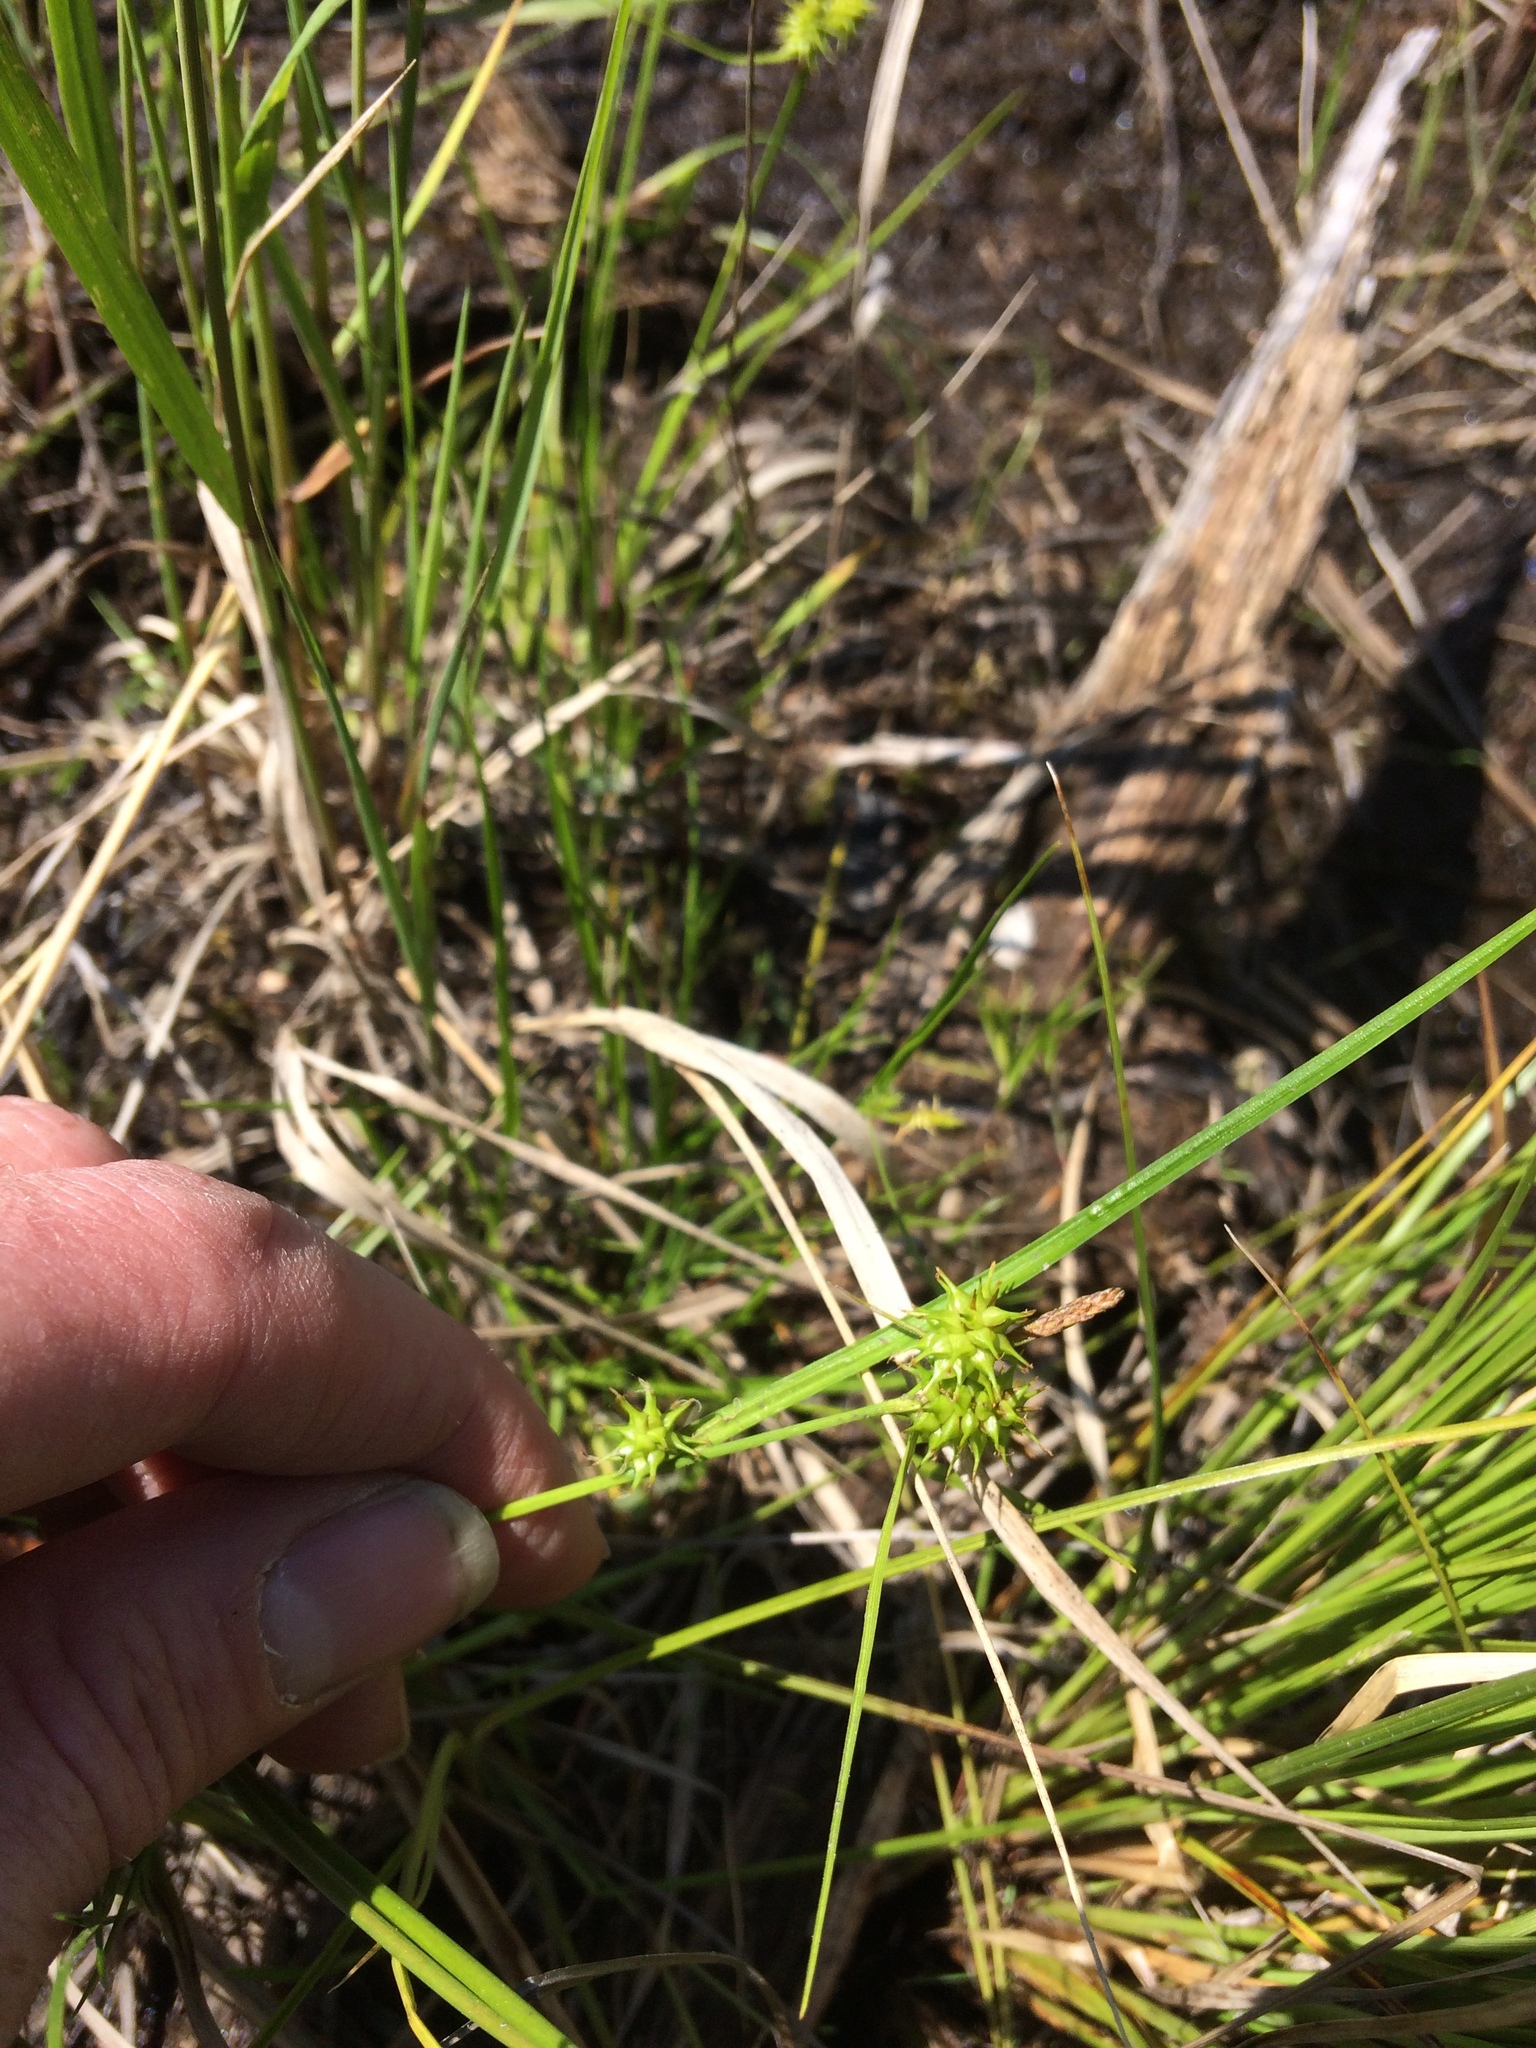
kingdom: Plantae
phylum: Tracheophyta
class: Liliopsida
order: Poales
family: Cyperaceae
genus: Carex
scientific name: Carex flava
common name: Large yellow-sedge
